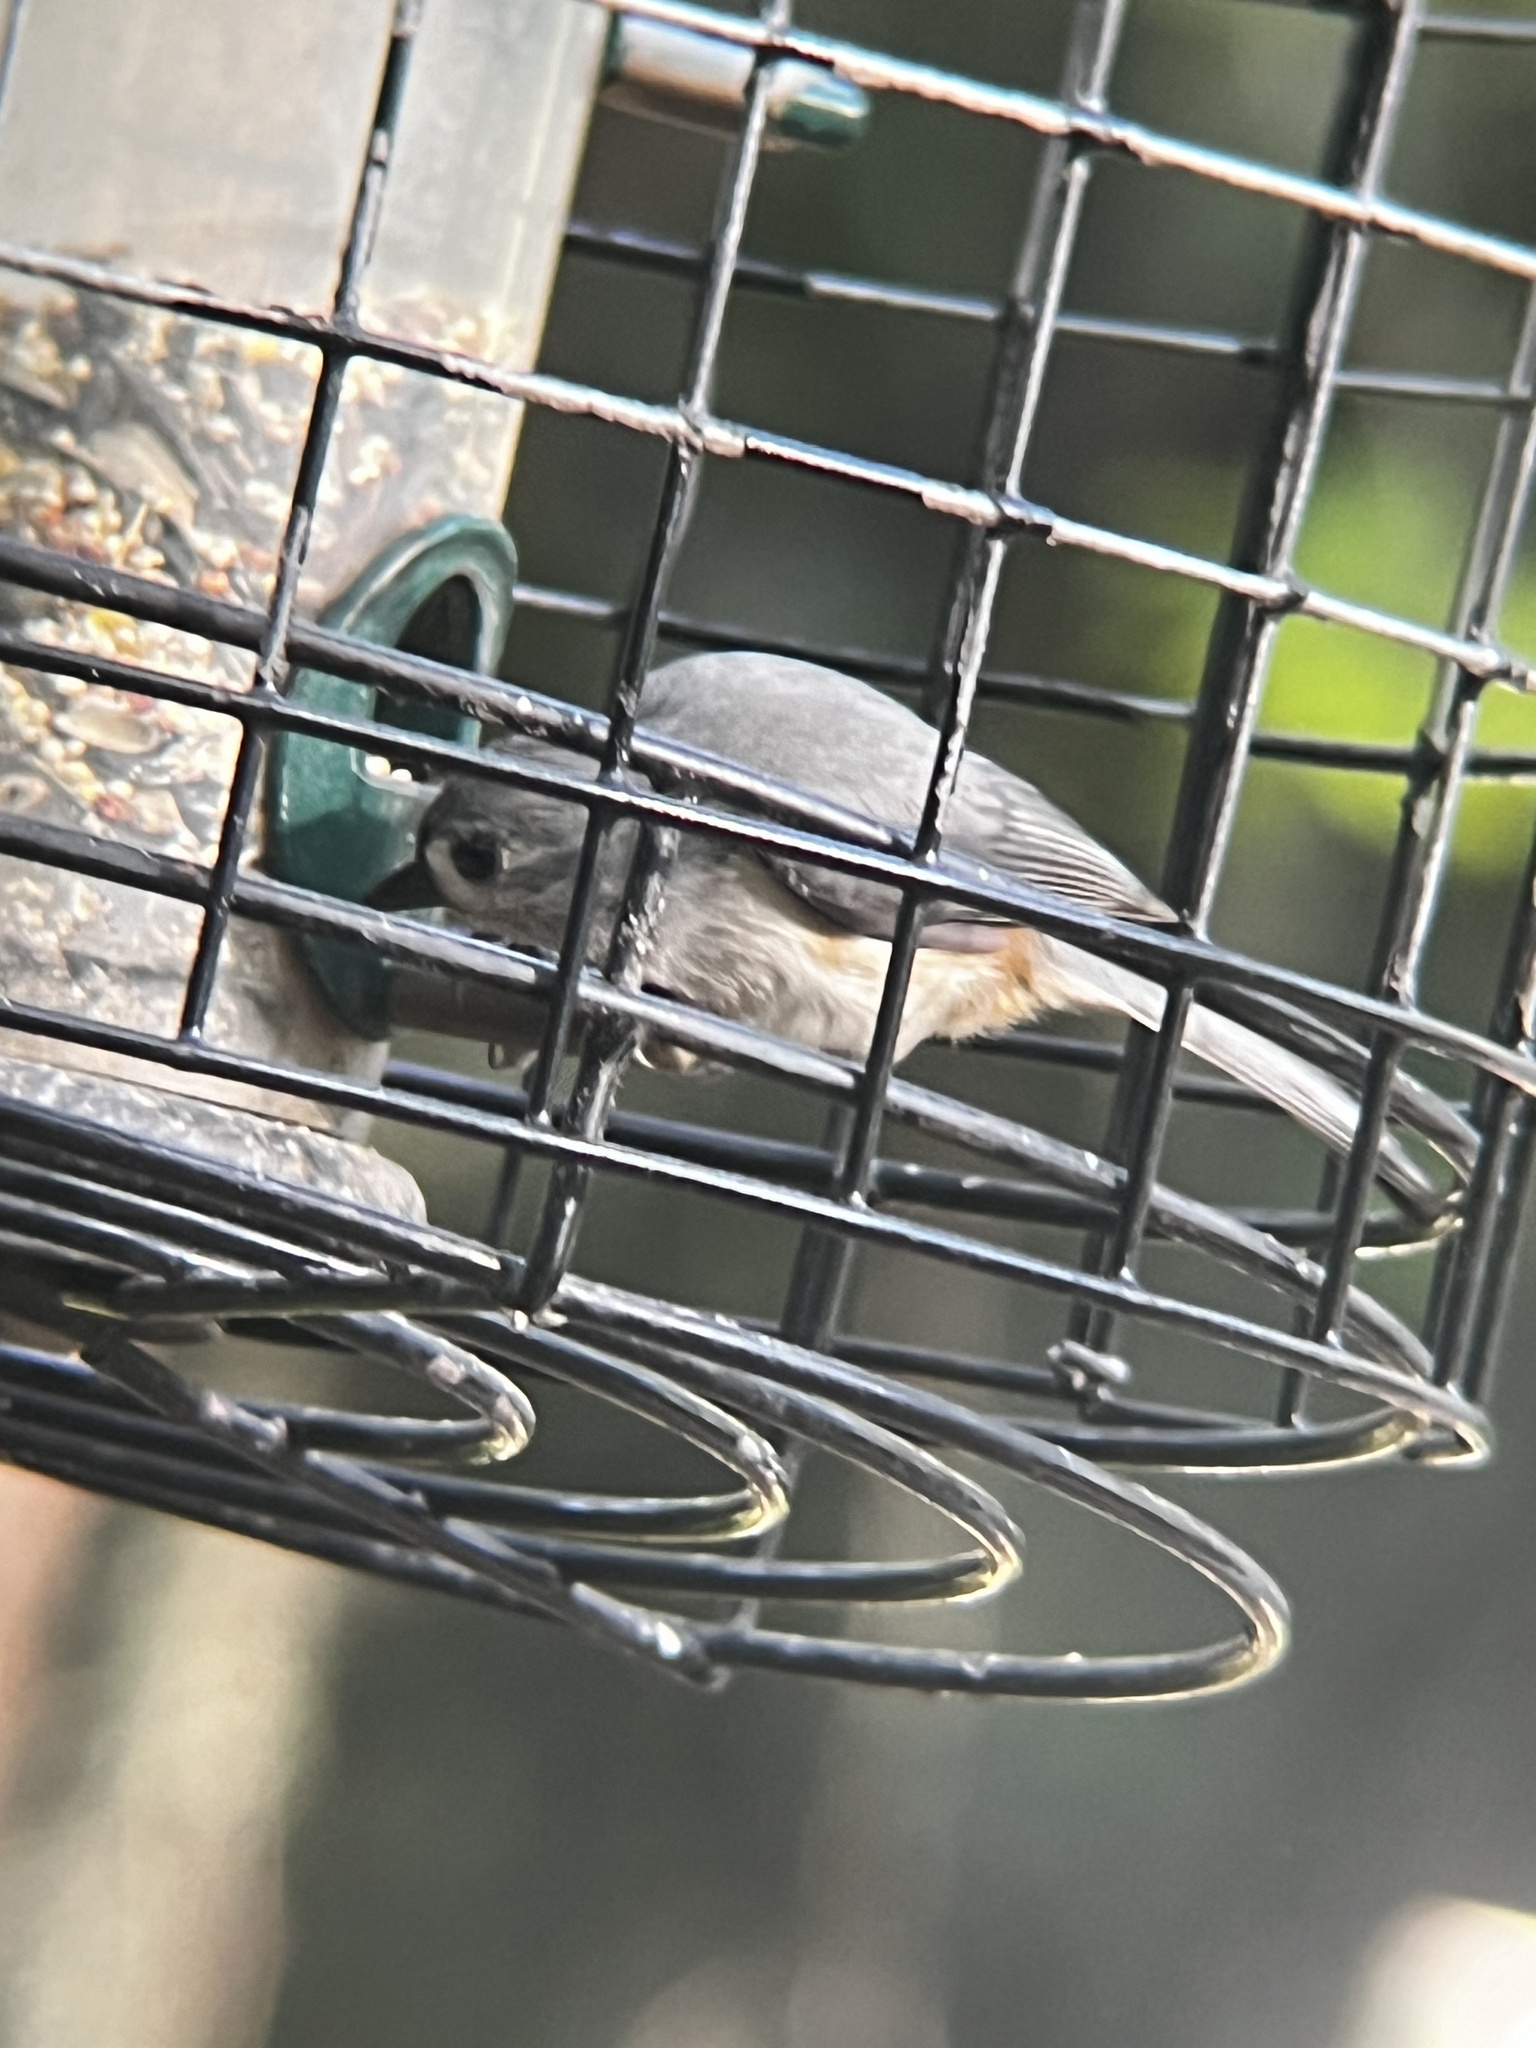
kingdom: Animalia
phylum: Chordata
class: Aves
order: Passeriformes
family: Paridae
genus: Baeolophus
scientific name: Baeolophus bicolor
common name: Tufted titmouse
